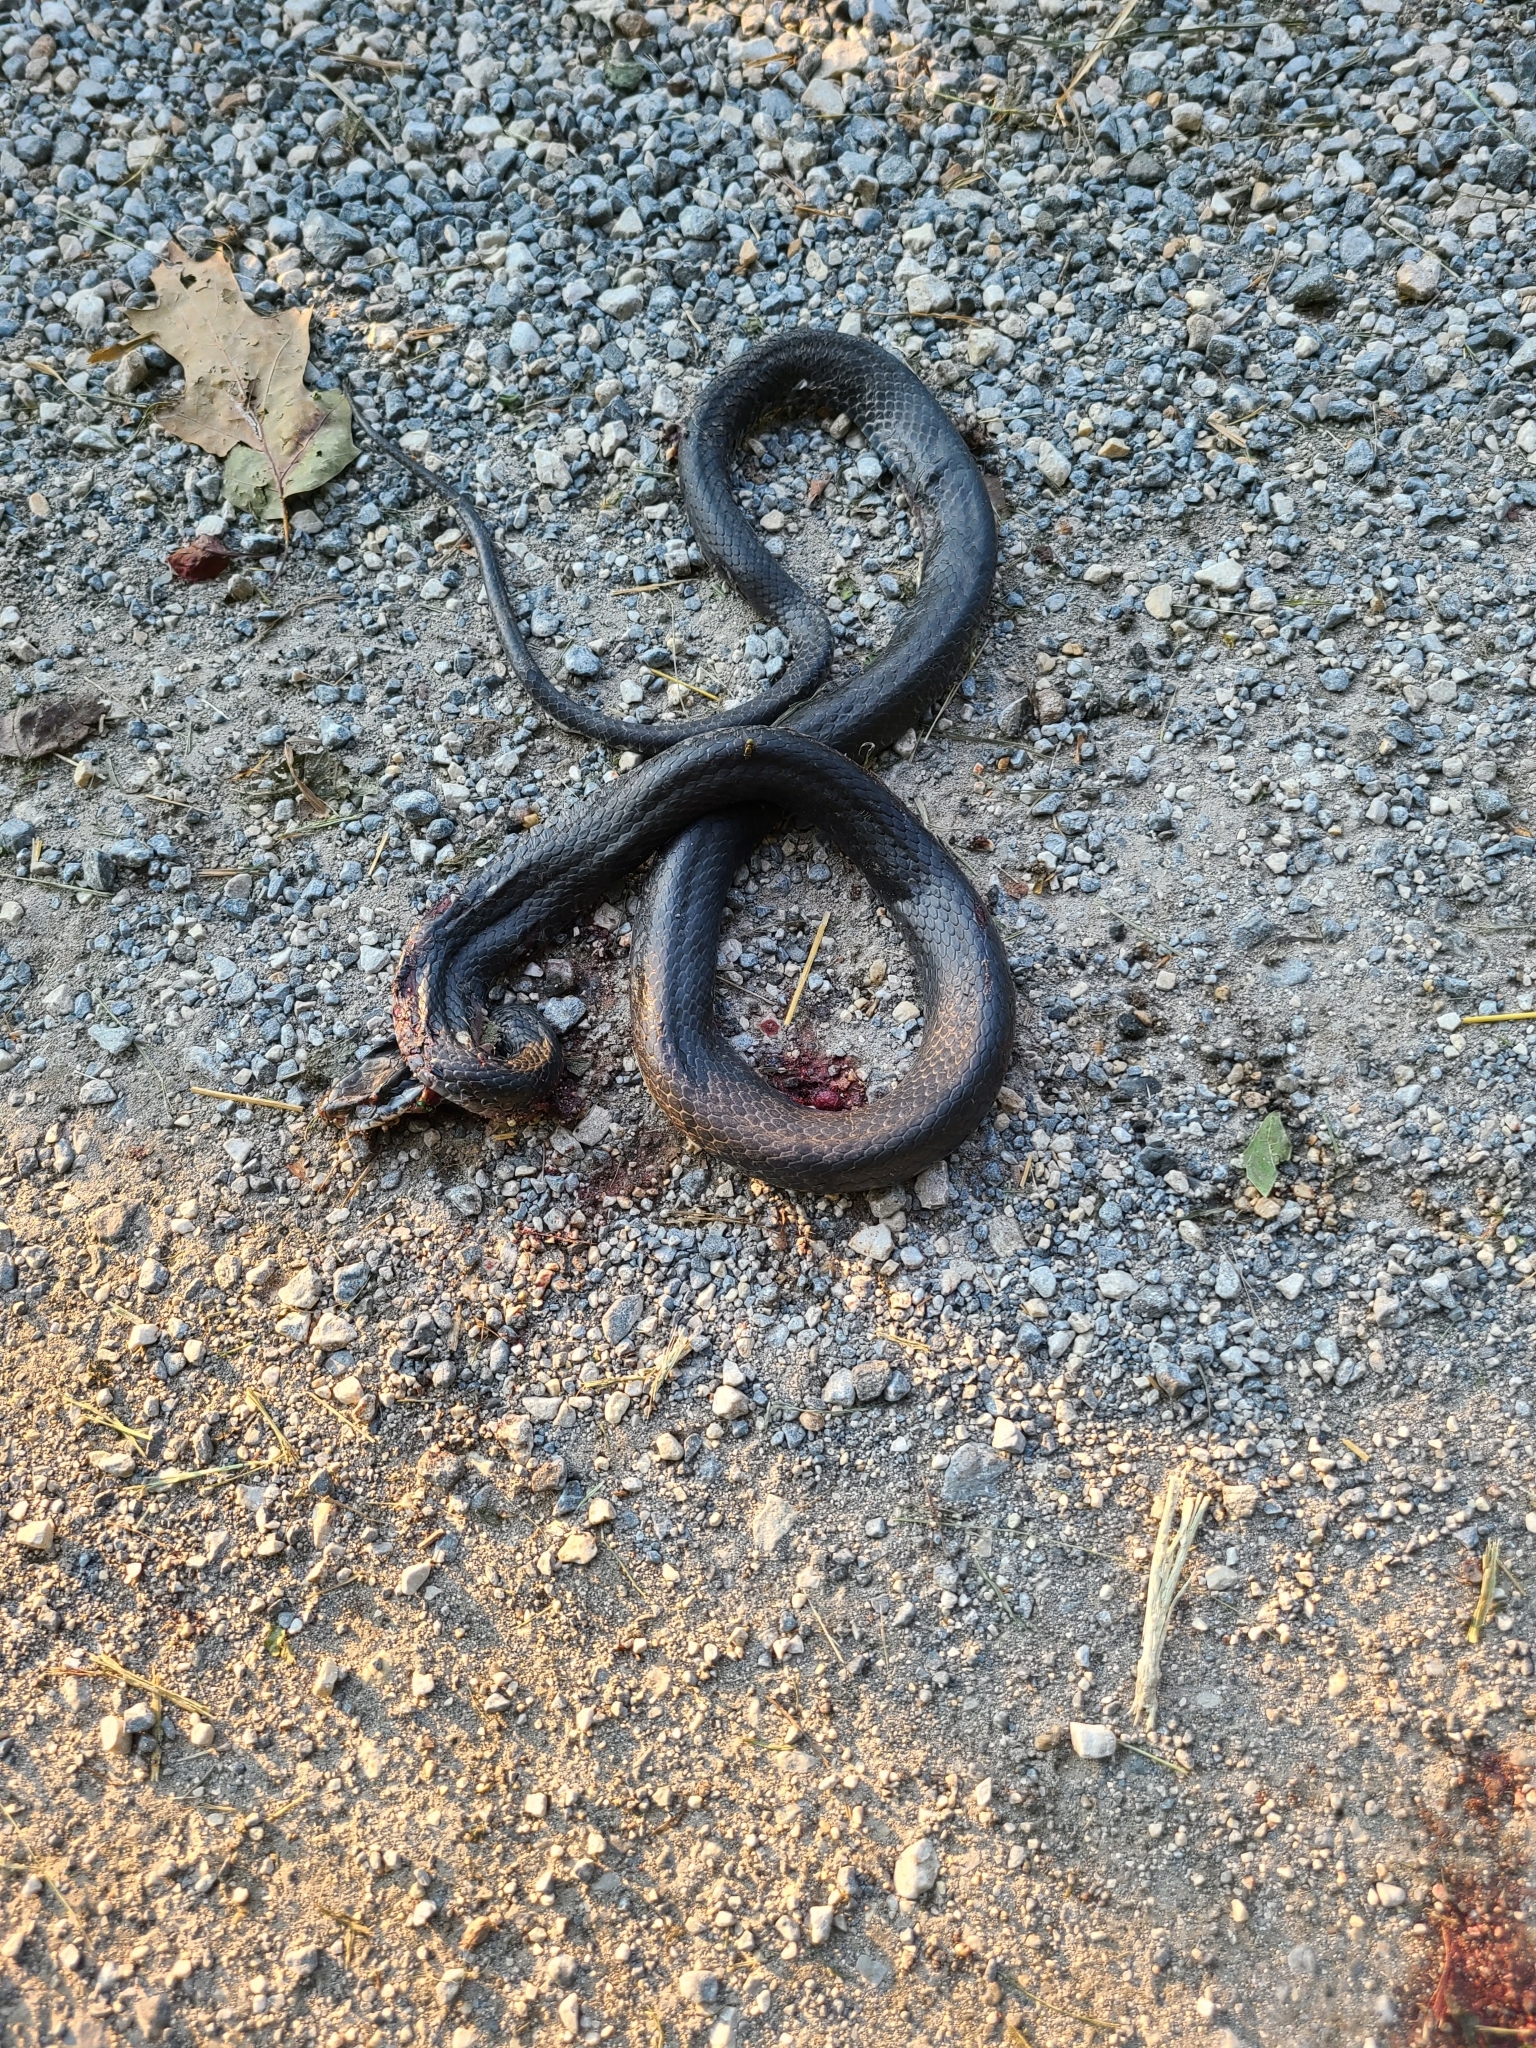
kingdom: Animalia
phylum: Chordata
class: Squamata
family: Colubridae
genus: Coluber
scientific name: Coluber constrictor
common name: Eastern racer
